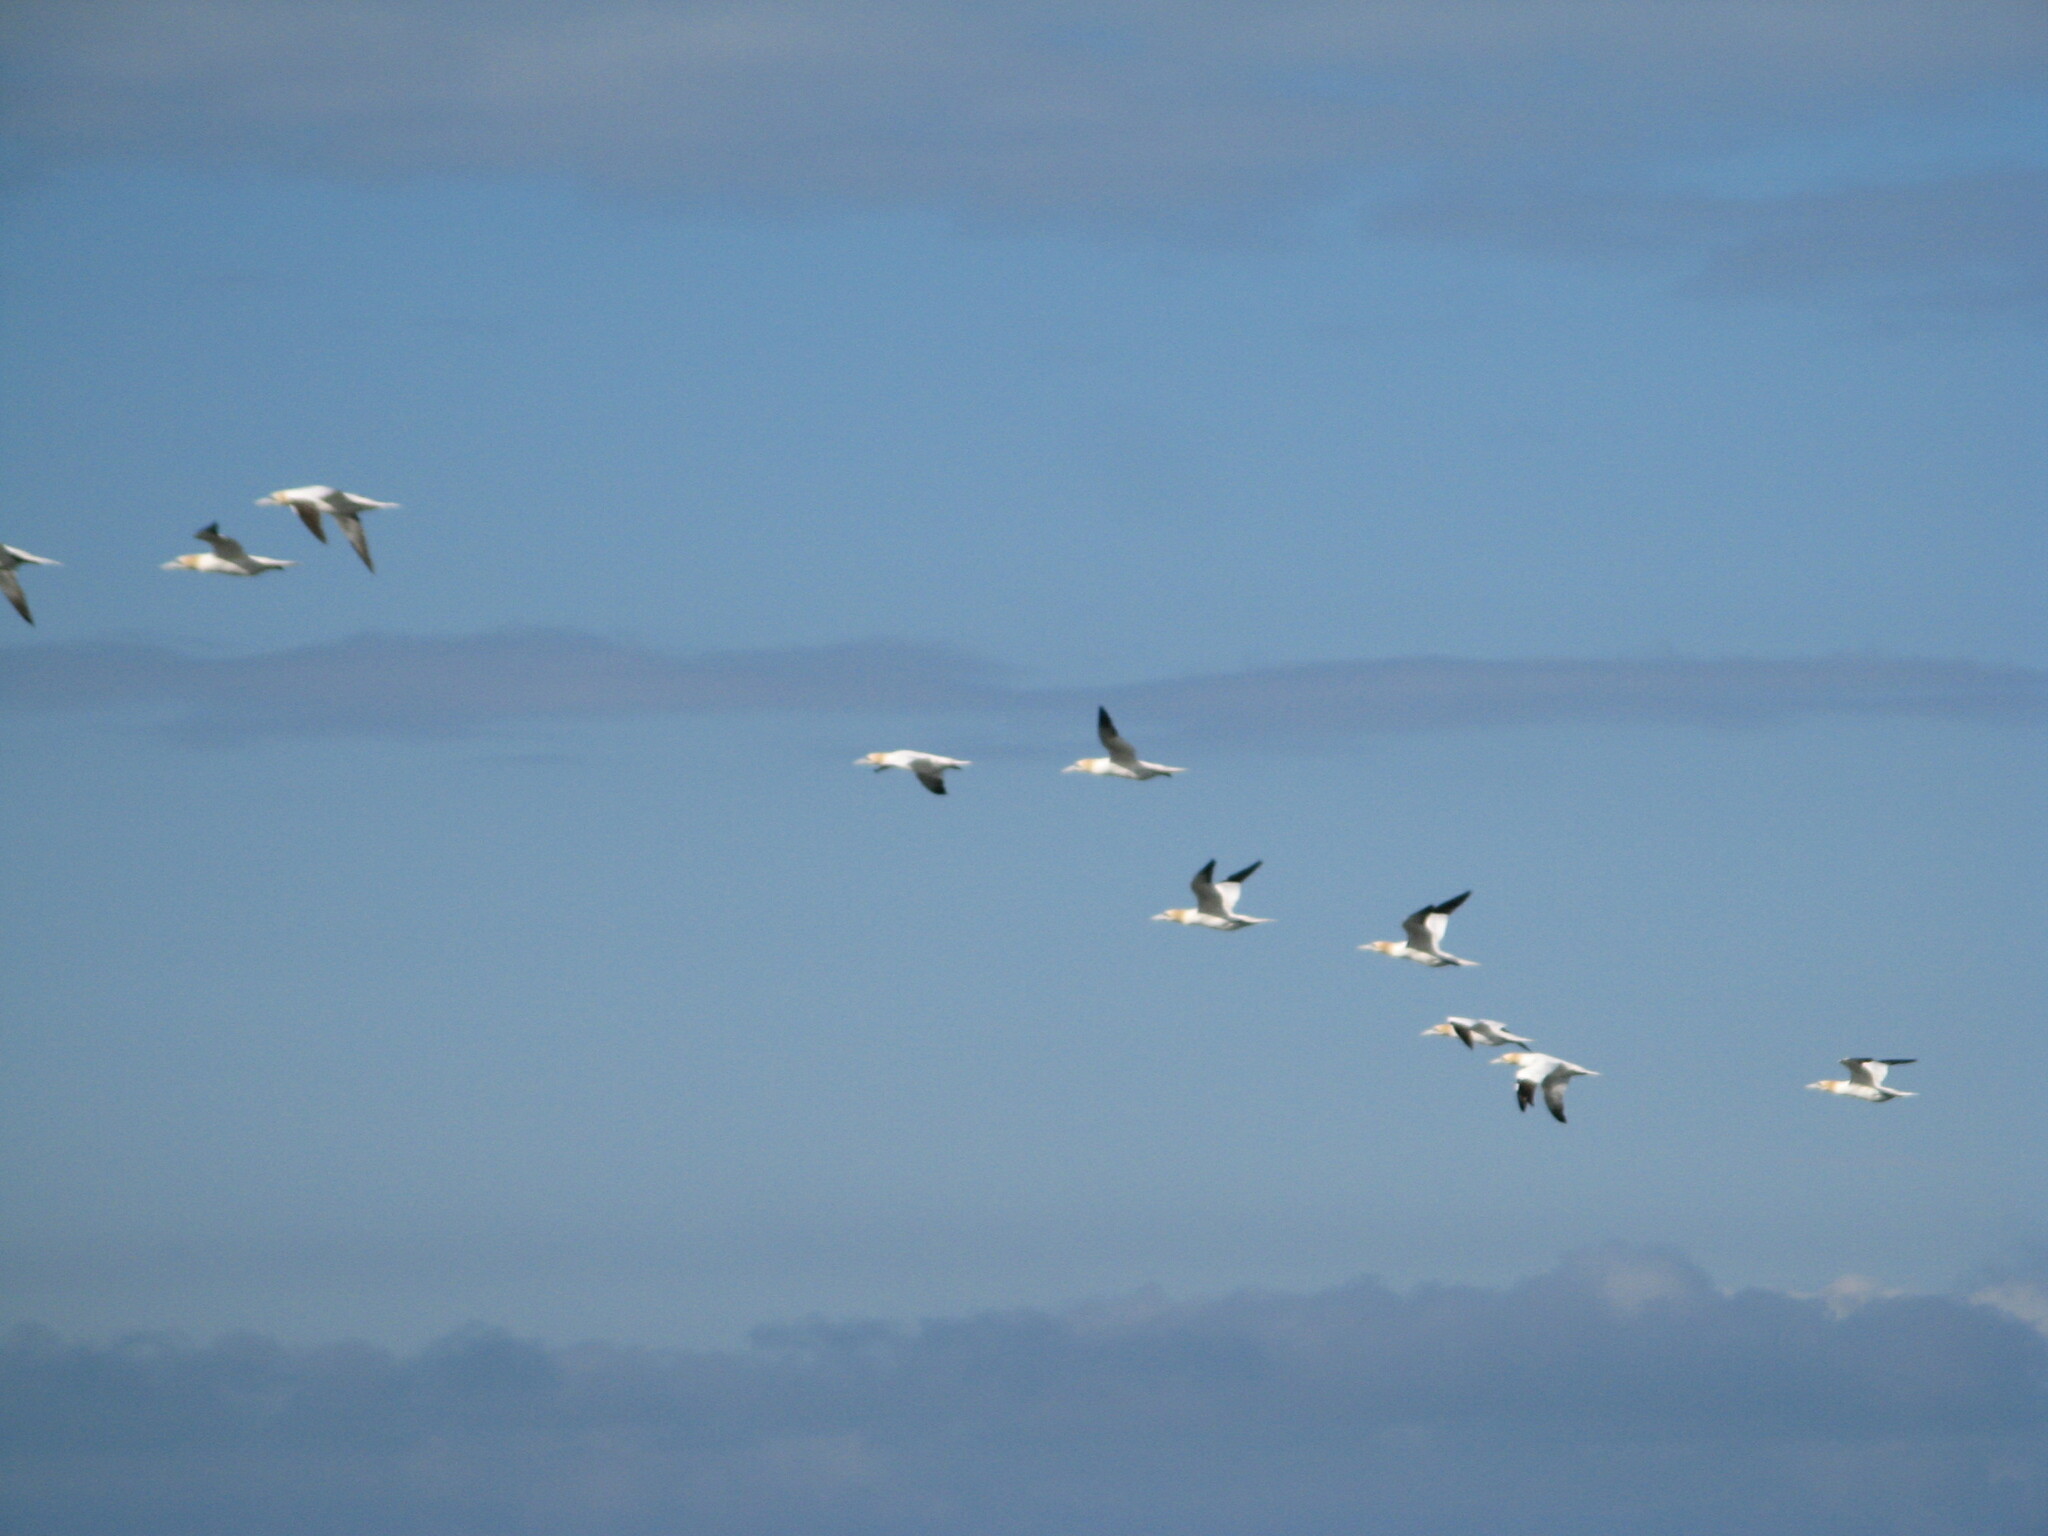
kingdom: Animalia
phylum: Chordata
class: Aves
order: Suliformes
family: Sulidae
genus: Morus
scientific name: Morus bassanus
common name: Northern gannet
